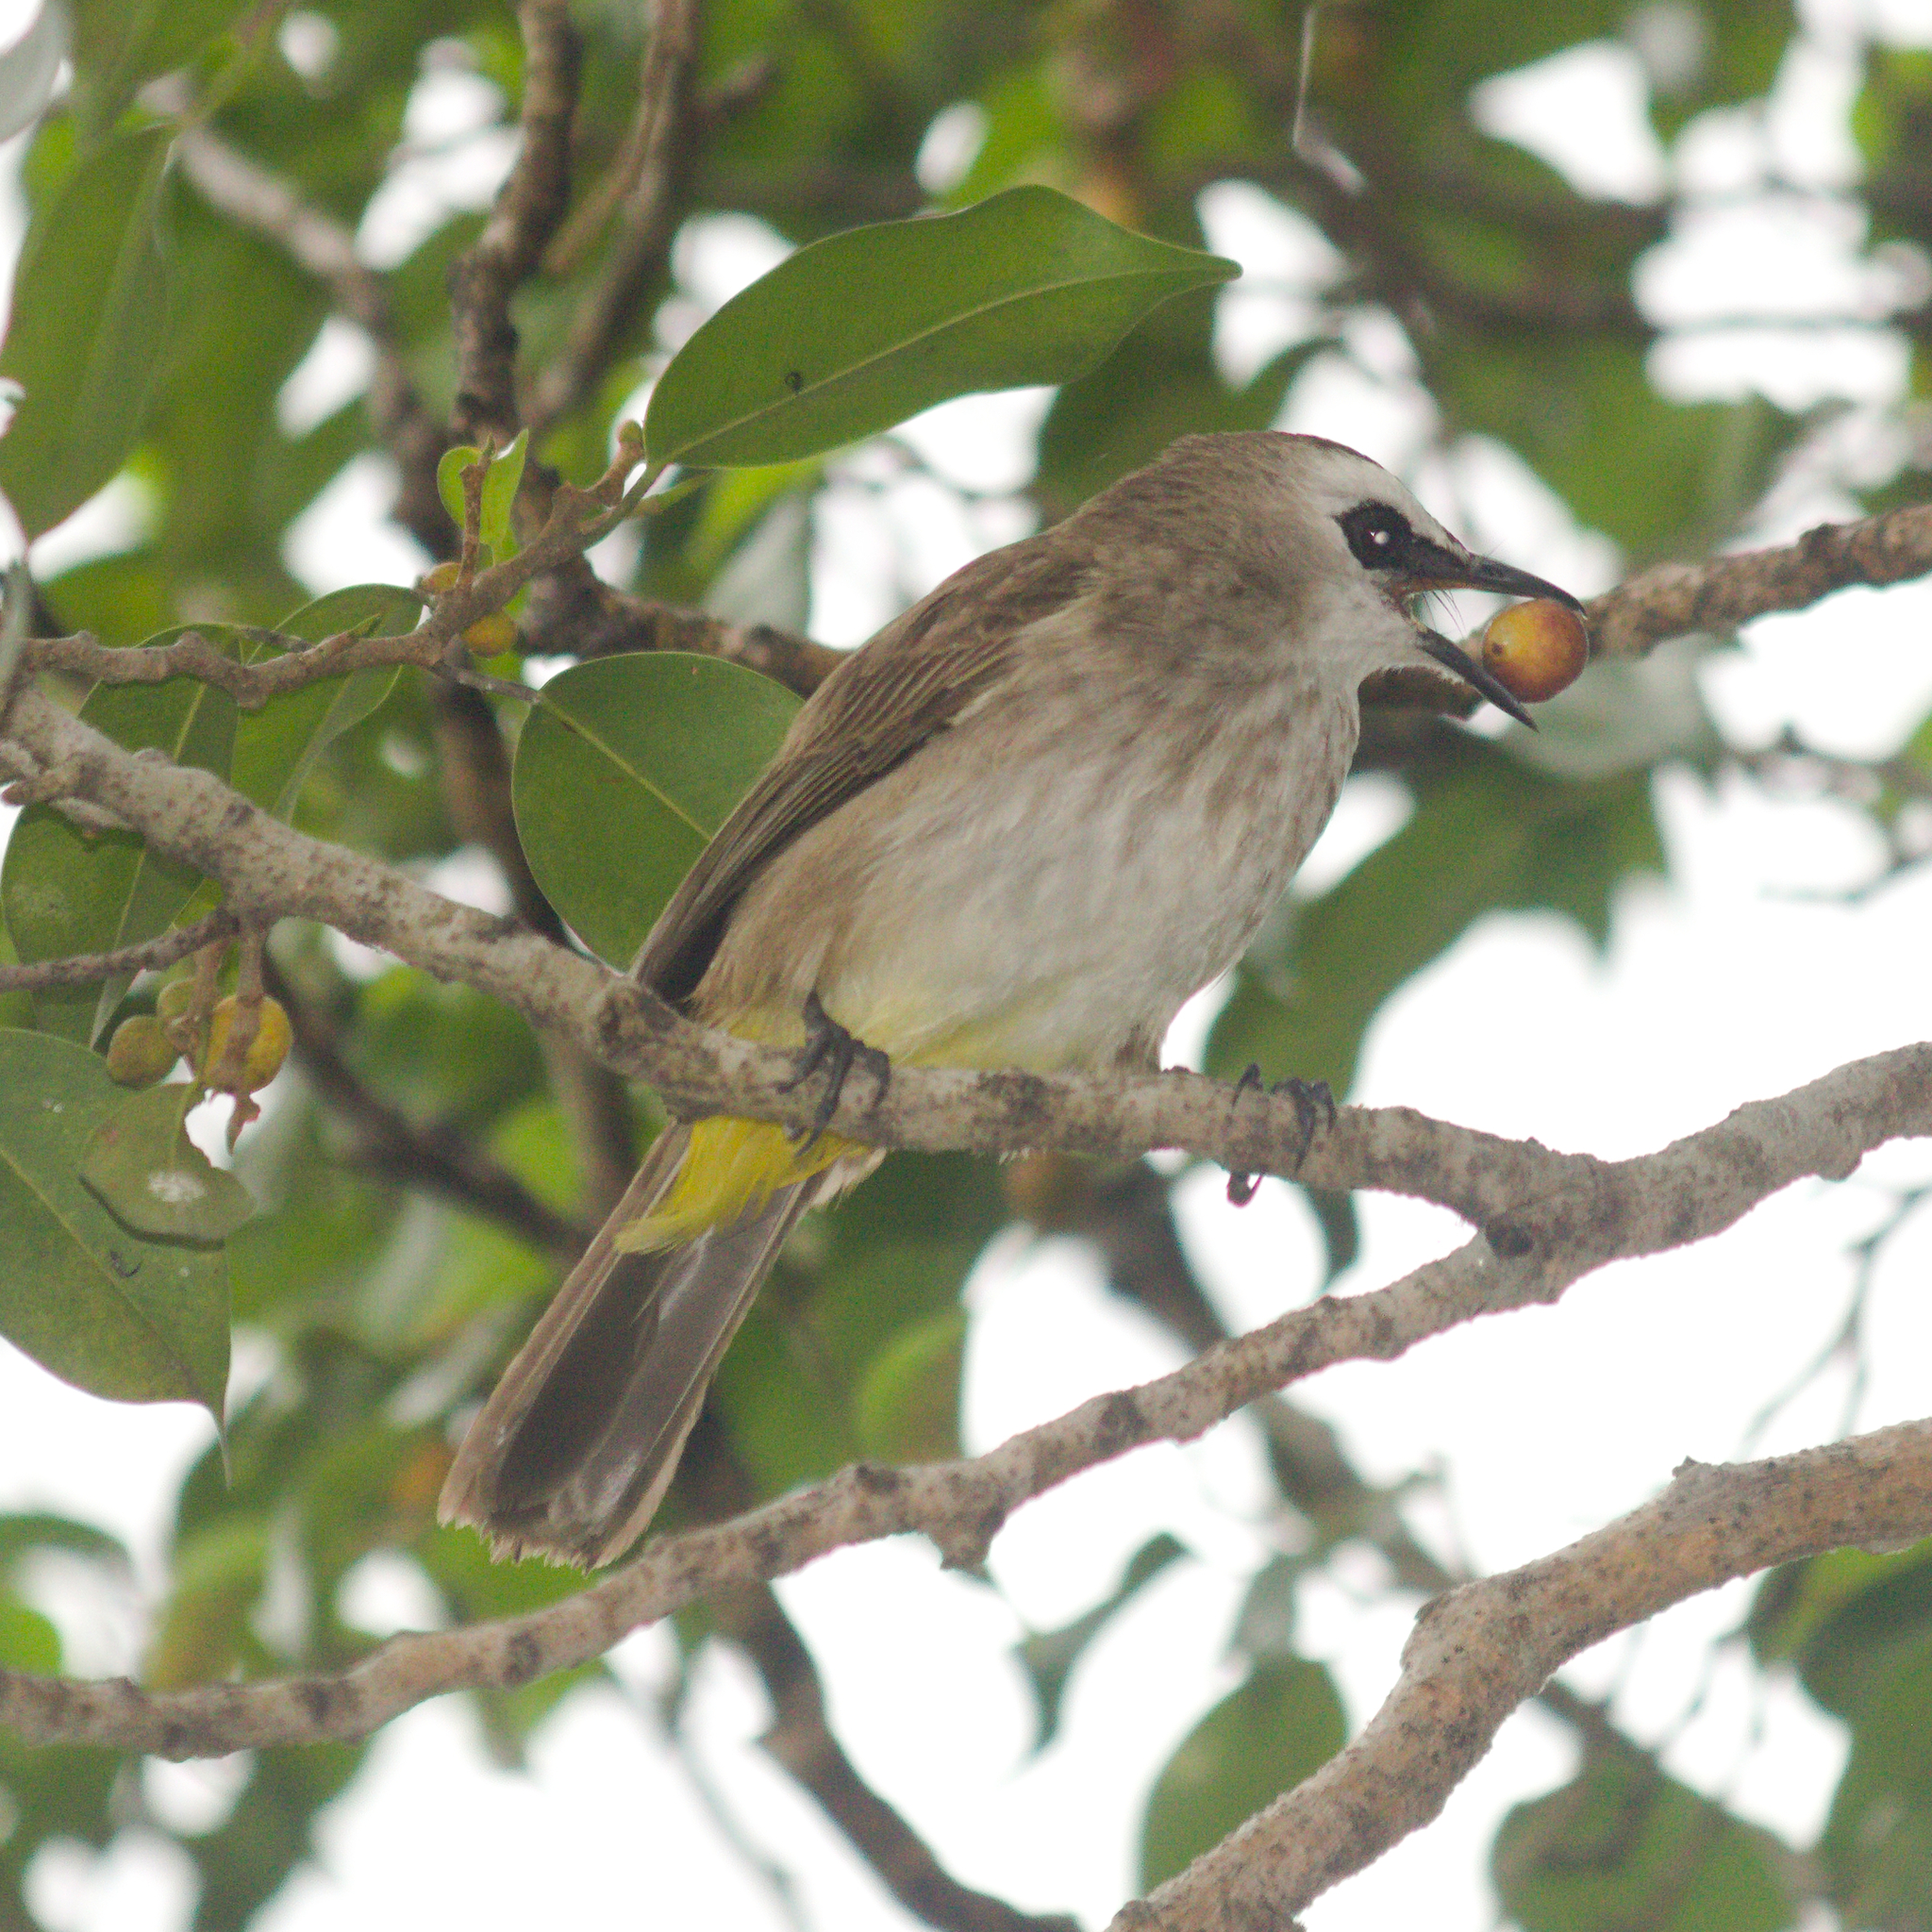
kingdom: Animalia
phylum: Chordata
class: Aves
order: Passeriformes
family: Pycnonotidae
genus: Pycnonotus
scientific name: Pycnonotus goiavier
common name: Yellow-vented bulbul
